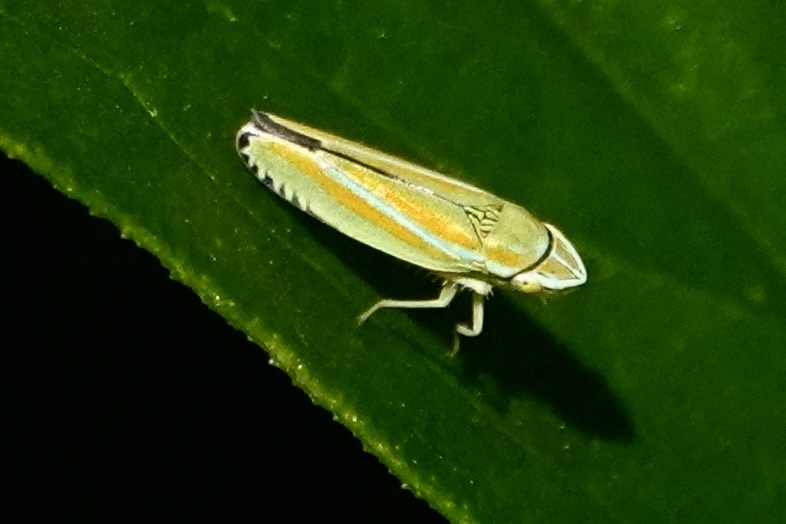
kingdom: Animalia
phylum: Arthropoda
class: Insecta
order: Hemiptera
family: Cicadellidae
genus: Graphocephala
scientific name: Graphocephala versuta
